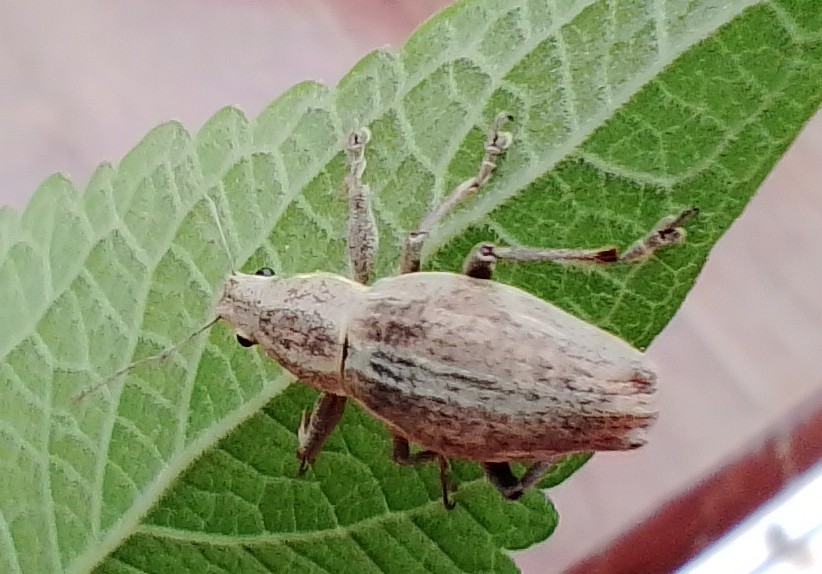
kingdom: Animalia
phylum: Arthropoda
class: Insecta
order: Coleoptera
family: Curculionidae
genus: Naupactus
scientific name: Naupactus xanthographus
